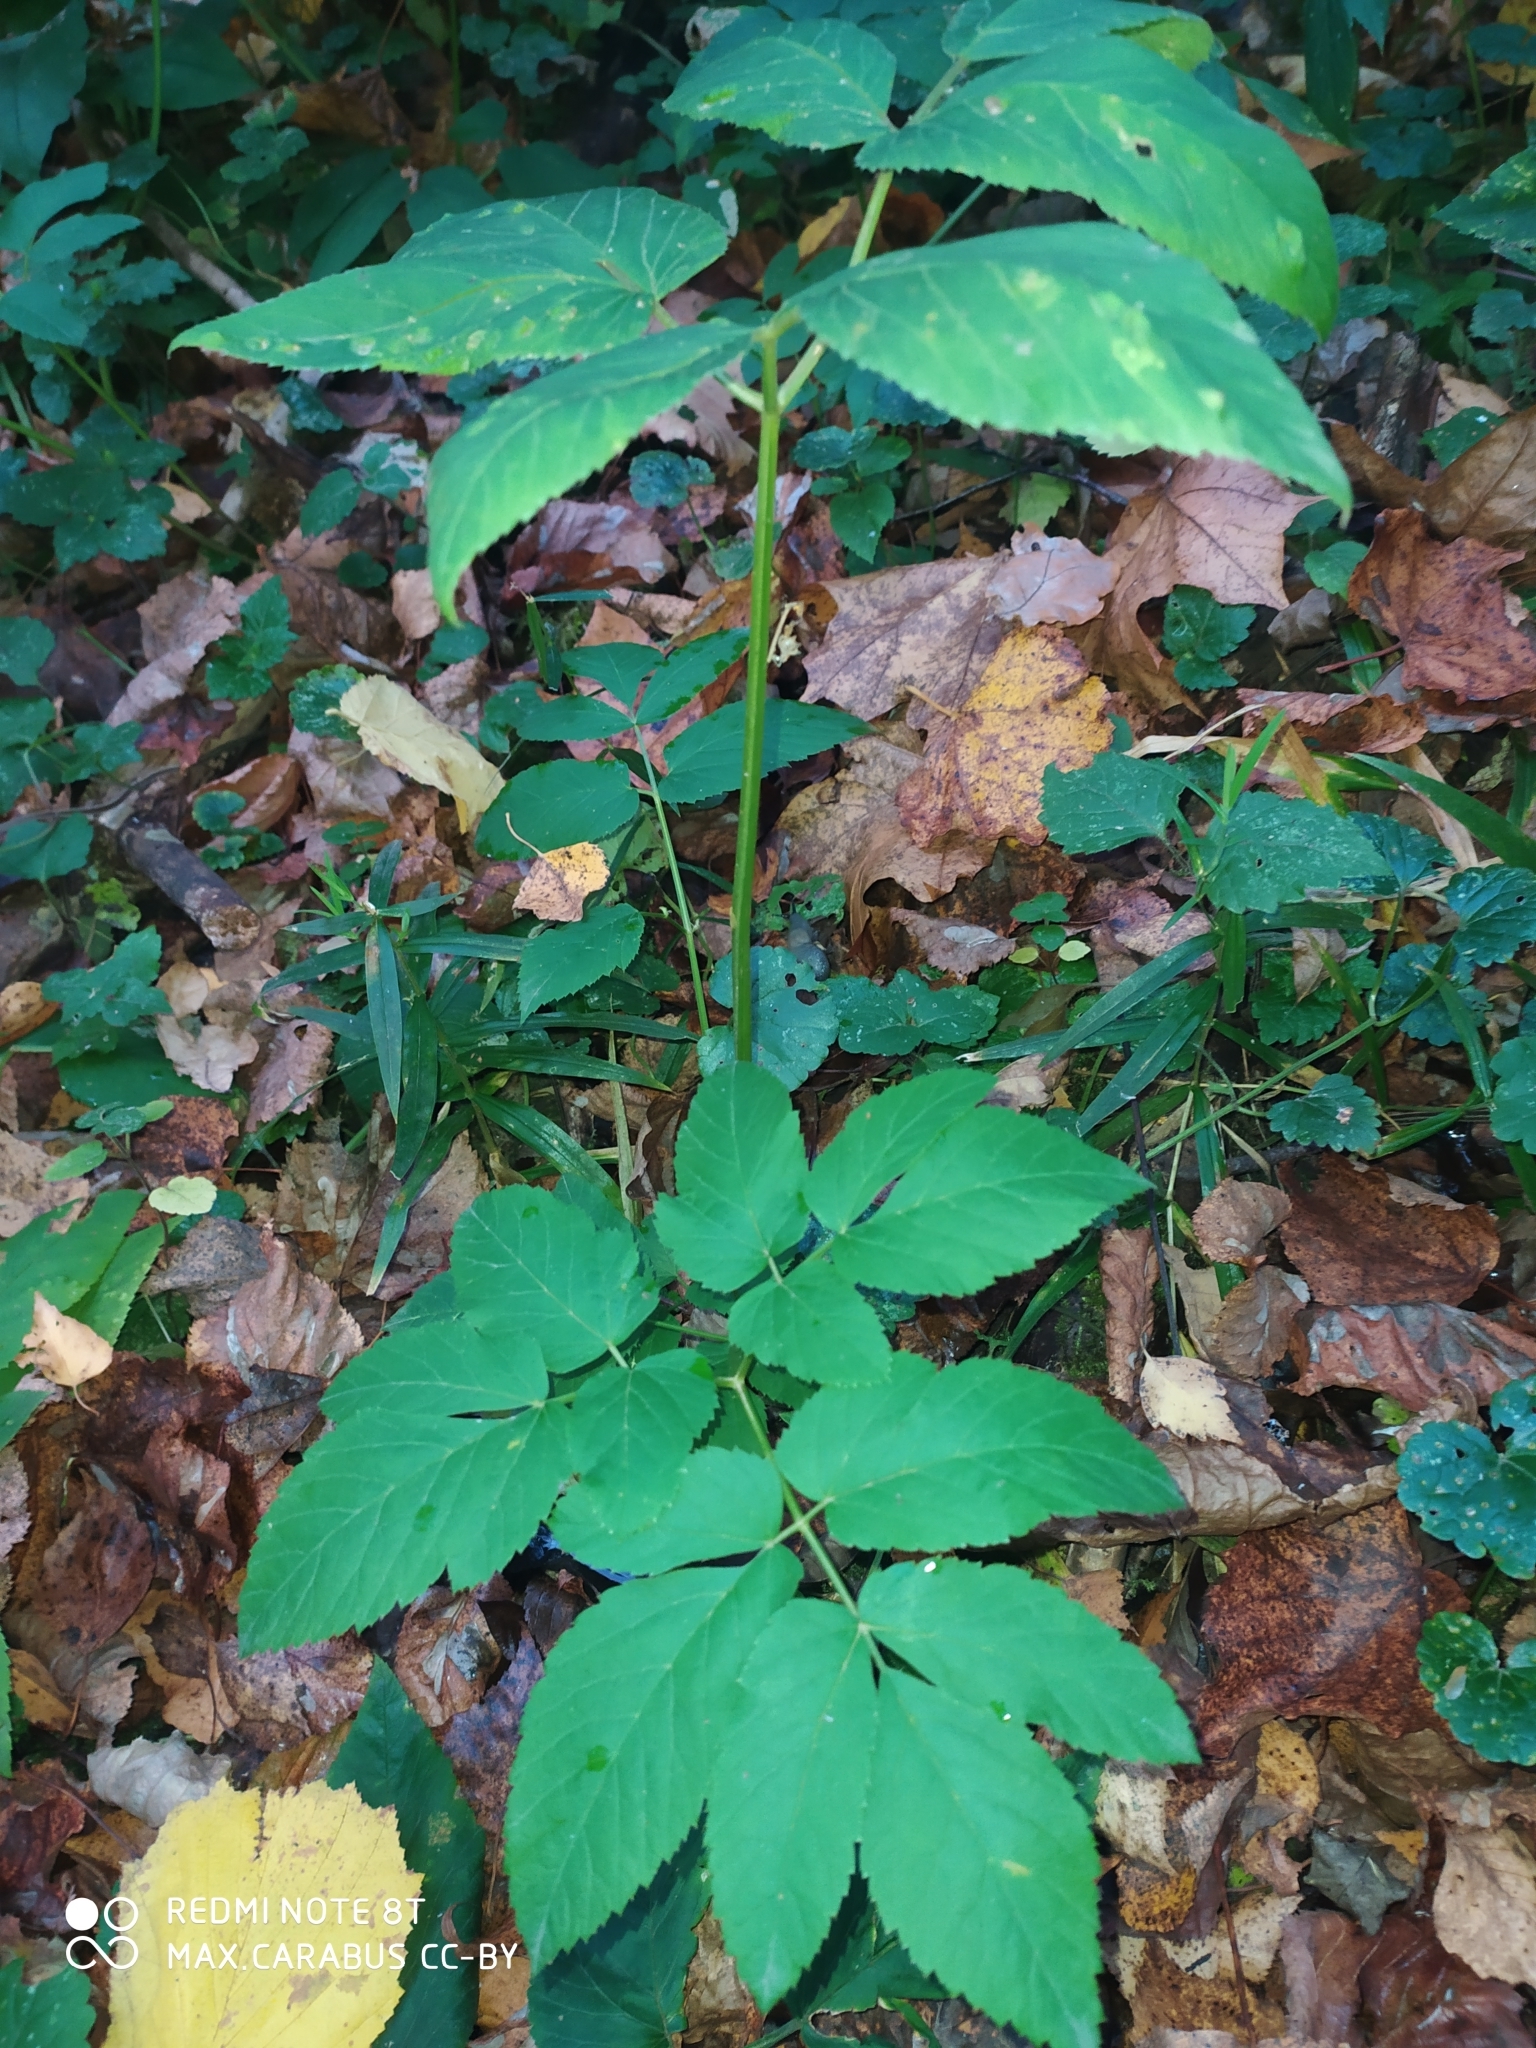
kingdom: Plantae
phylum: Tracheophyta
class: Magnoliopsida
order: Apiales
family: Apiaceae
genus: Aegopodium
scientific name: Aegopodium podagraria
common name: Ground-elder
